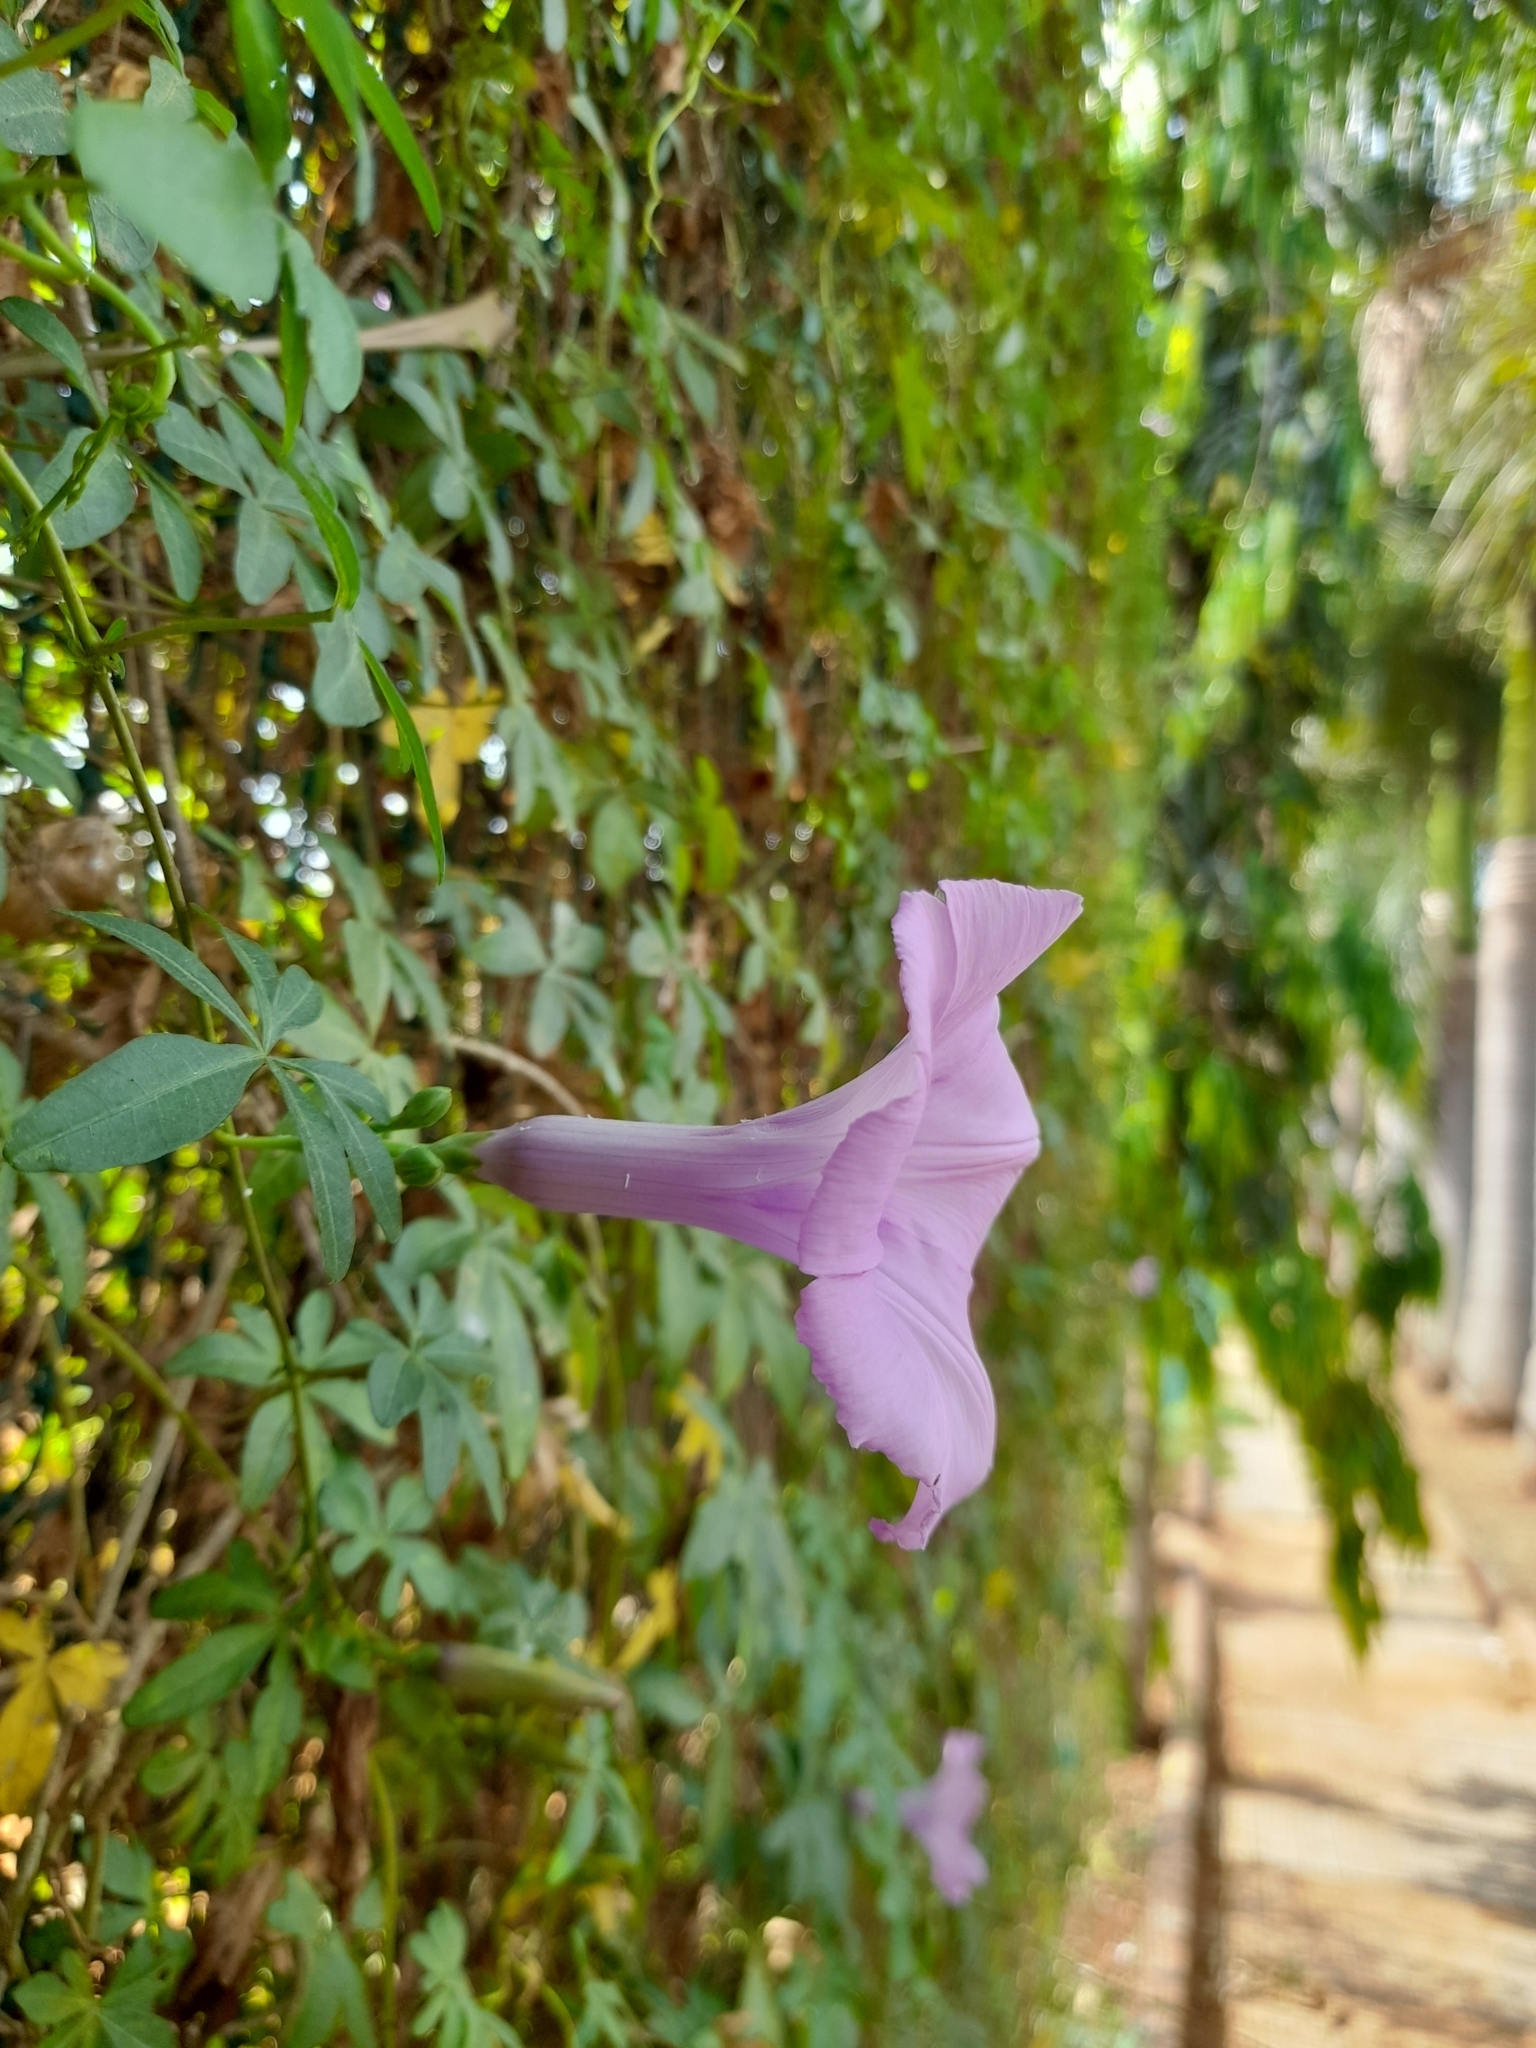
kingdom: Plantae
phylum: Tracheophyta
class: Magnoliopsida
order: Solanales
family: Convolvulaceae
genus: Ipomoea
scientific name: Ipomoea cairica
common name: Mile a minute vine
